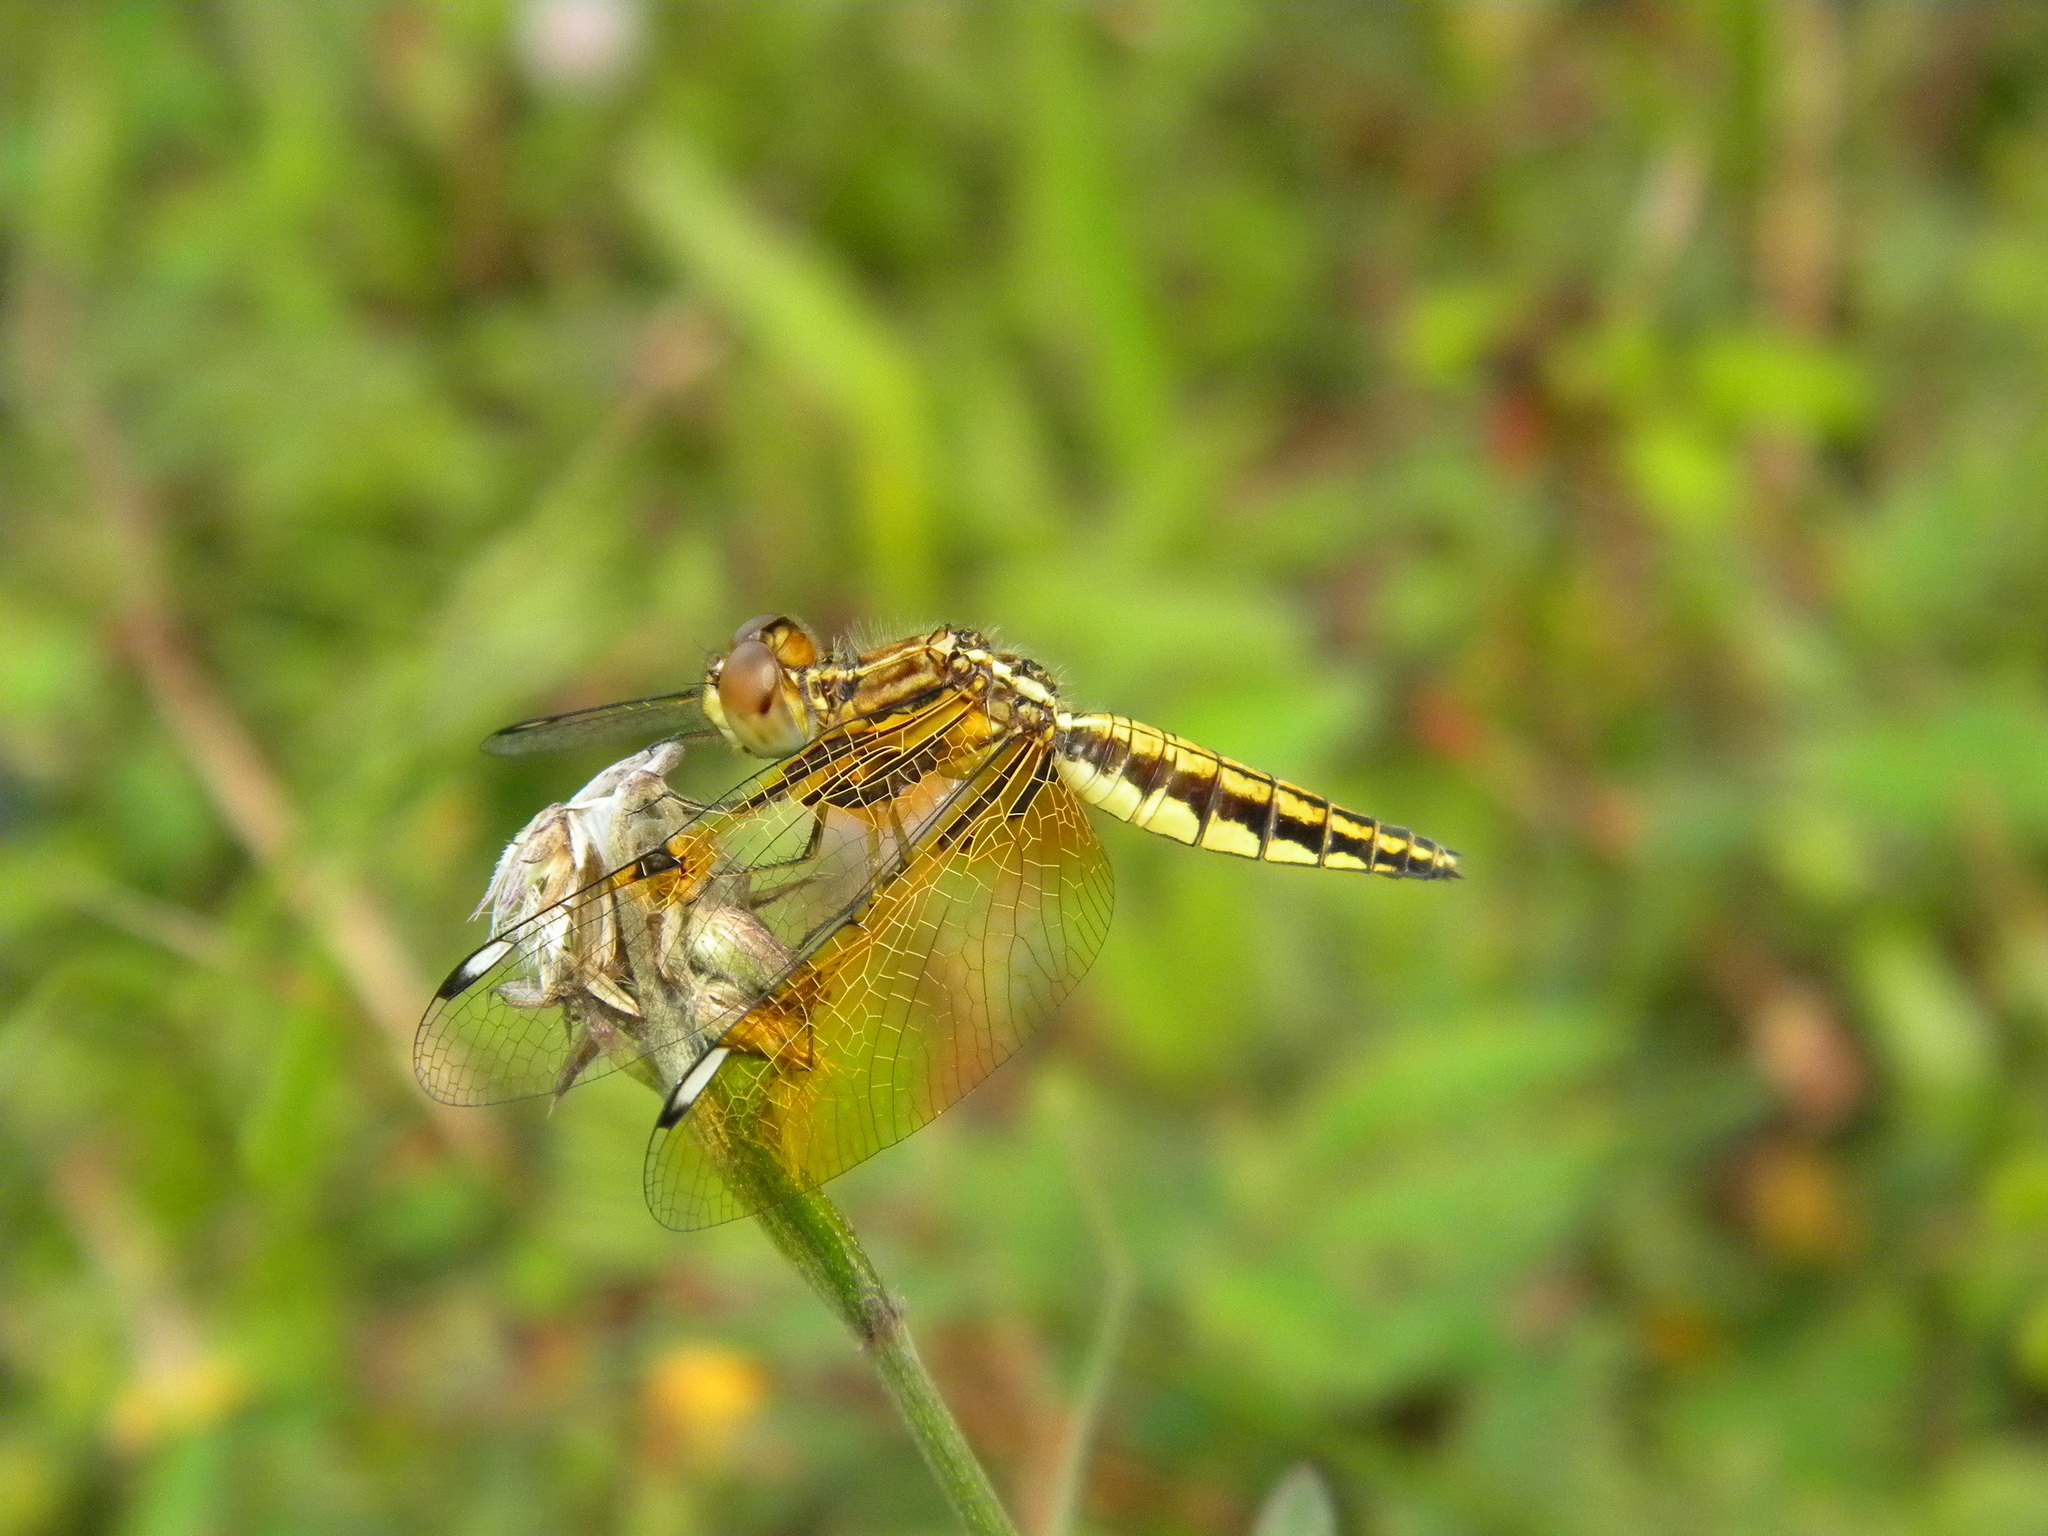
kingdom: Animalia
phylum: Arthropoda
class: Insecta
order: Odonata
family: Libellulidae
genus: Palpopleura
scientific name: Palpopleura sexmaculata
